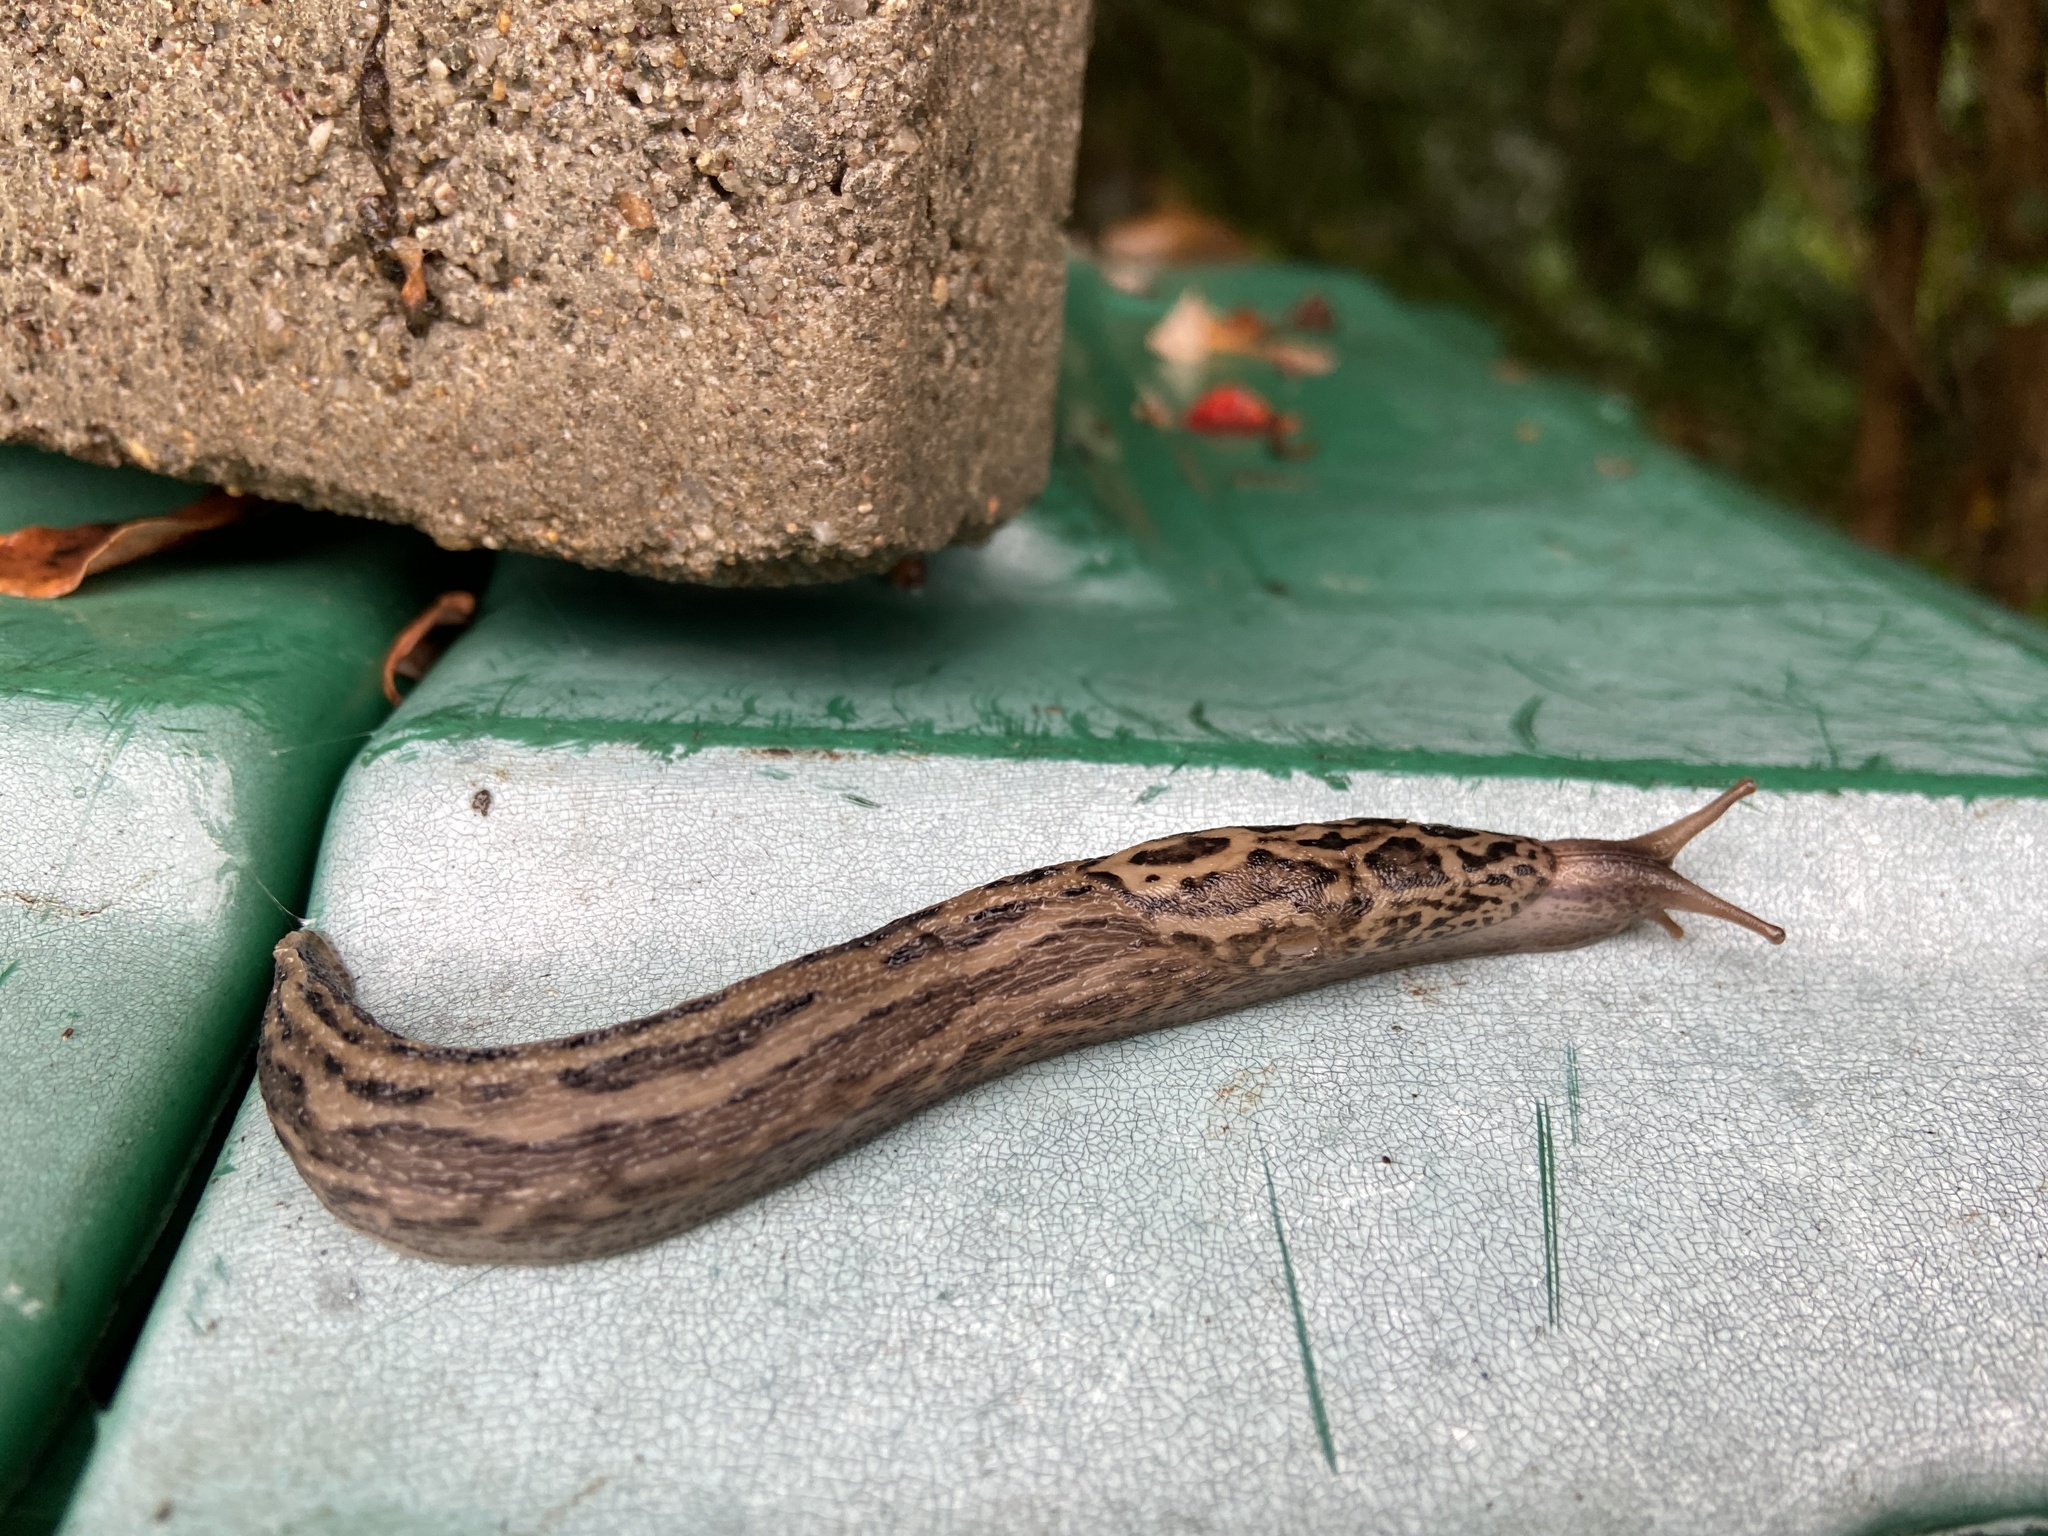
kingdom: Animalia
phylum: Mollusca
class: Gastropoda
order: Stylommatophora
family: Limacidae
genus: Limax
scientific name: Limax maximus
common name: Great grey slug
